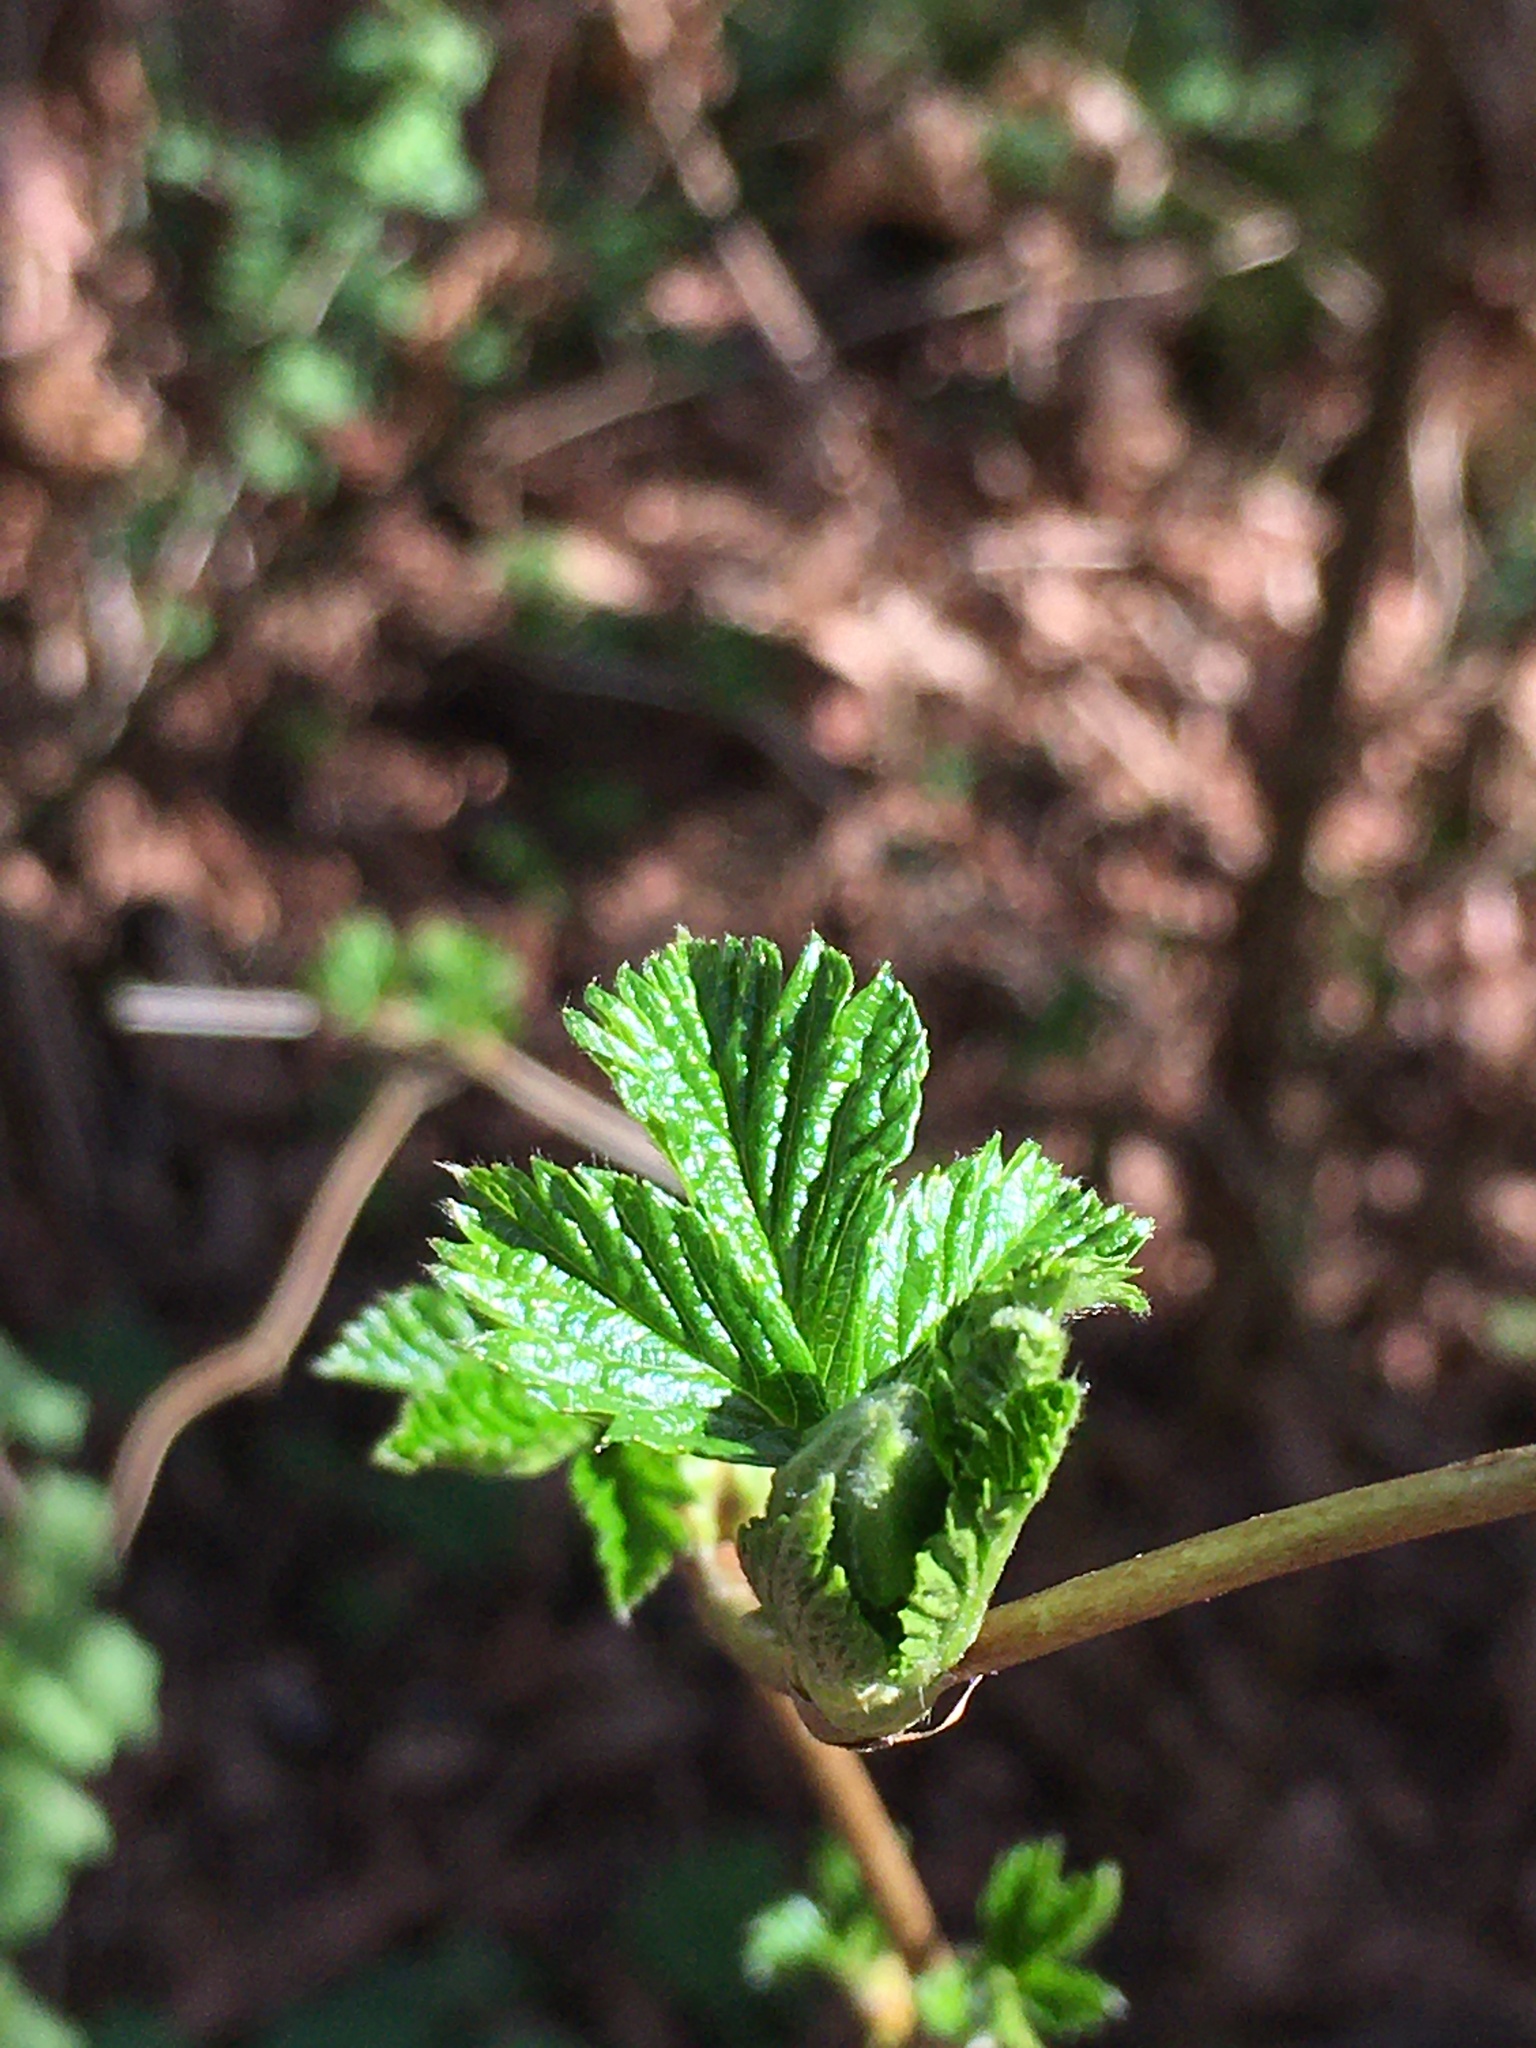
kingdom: Plantae
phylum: Tracheophyta
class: Magnoliopsida
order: Rosales
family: Rosaceae
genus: Rubus
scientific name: Rubus spectabilis
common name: Salmonberry
